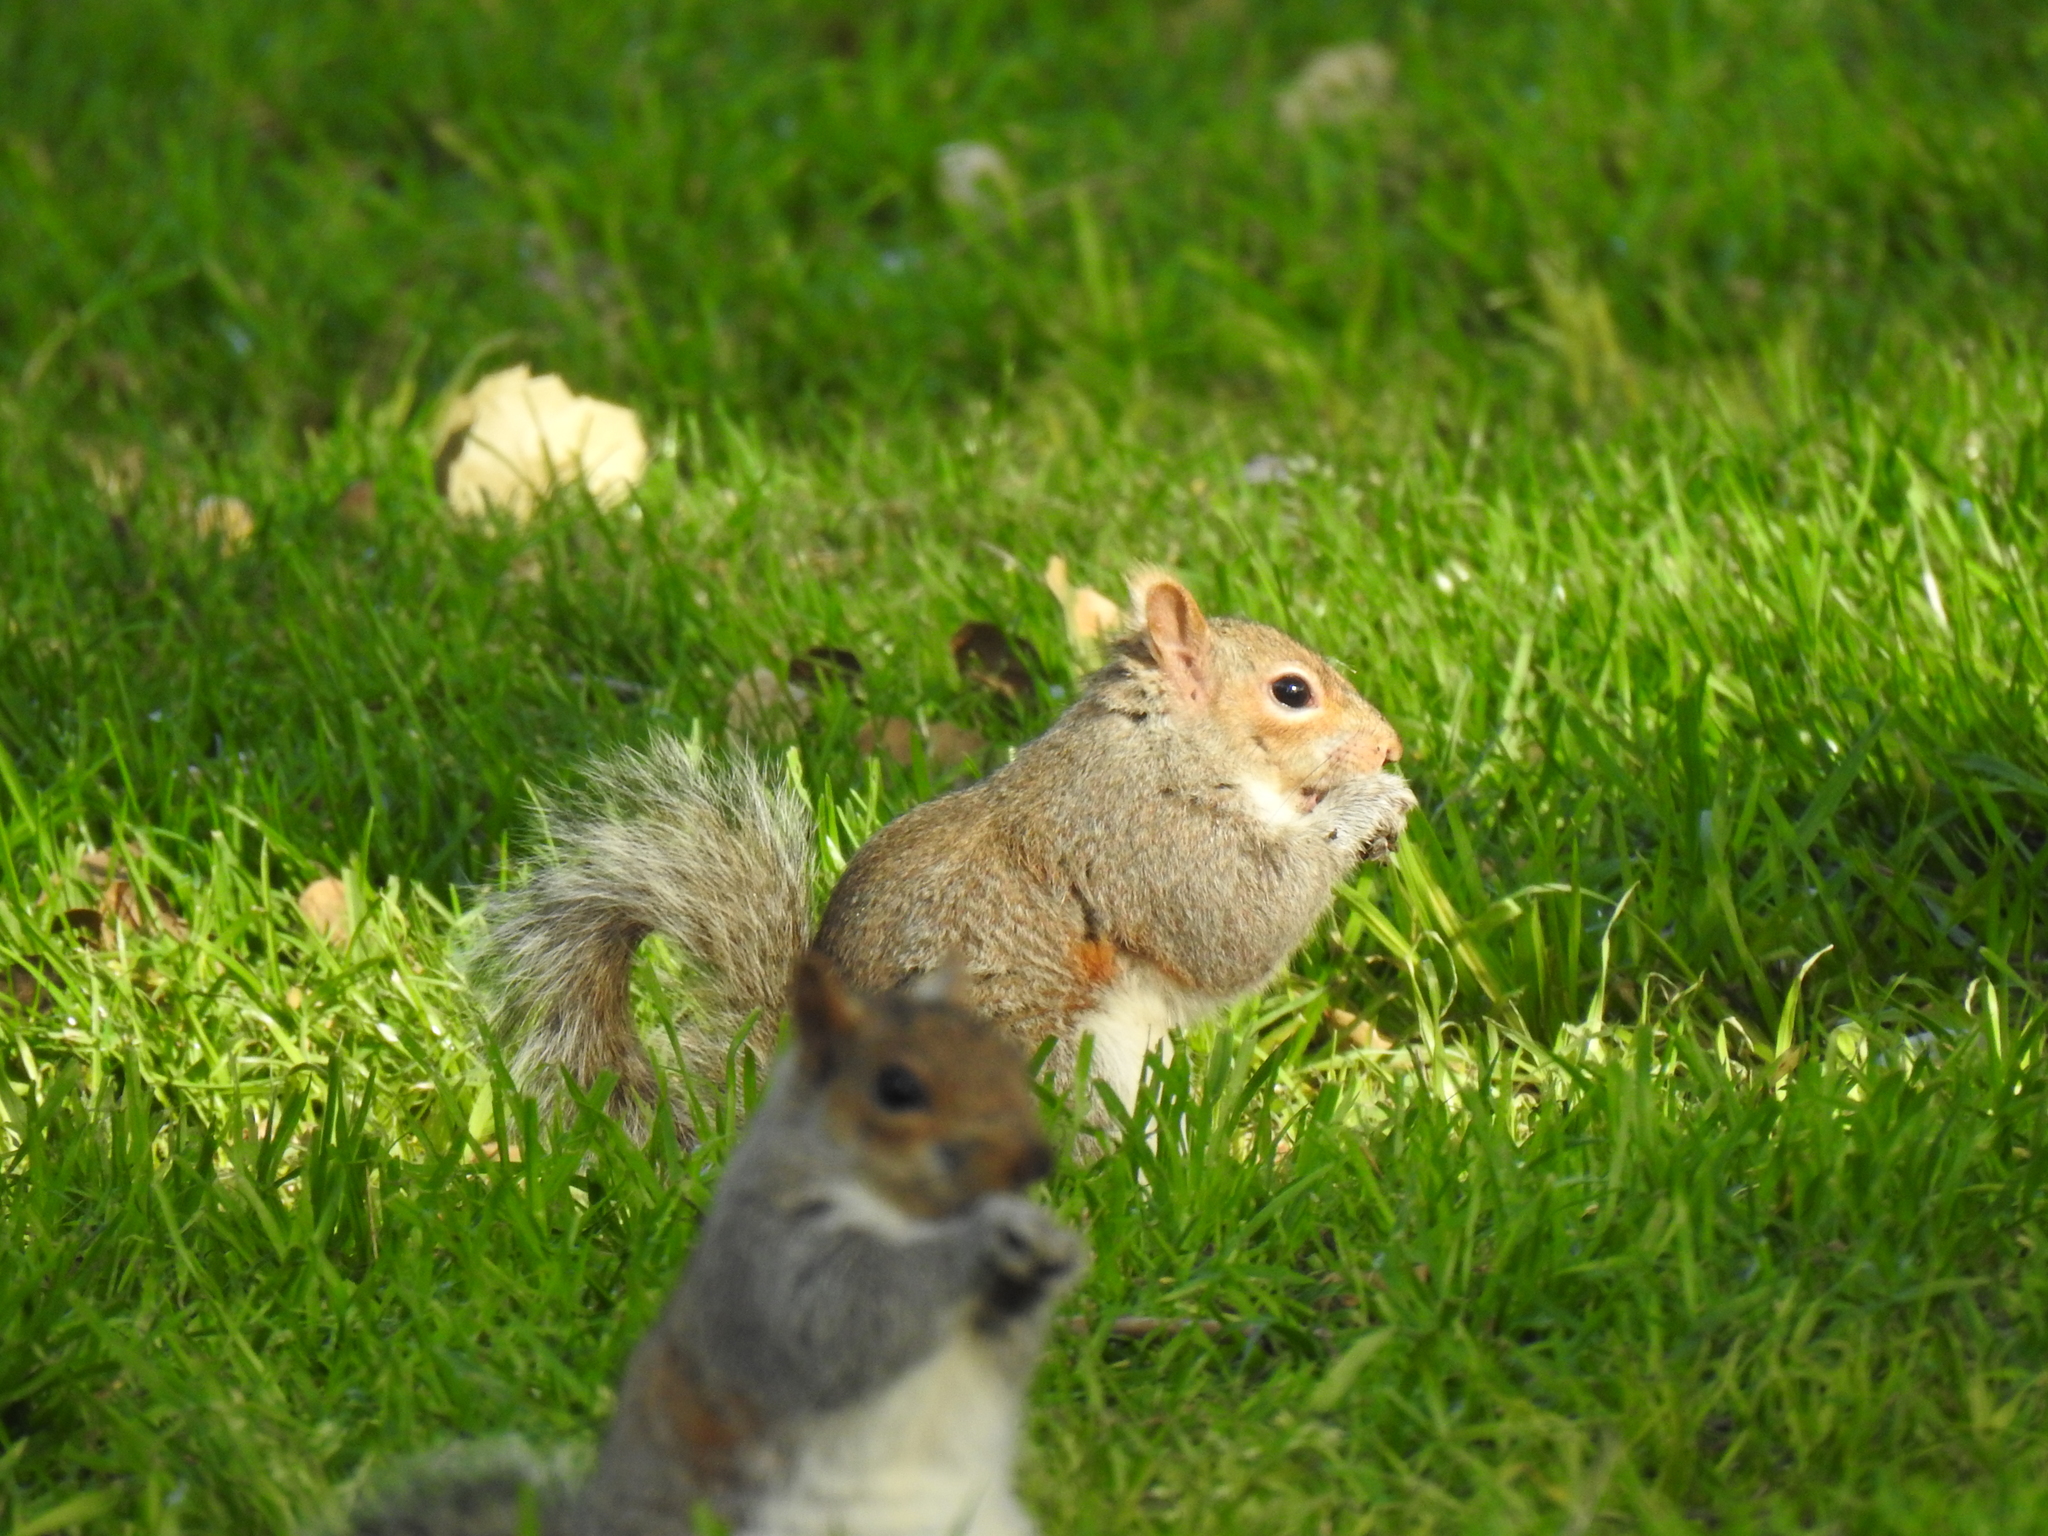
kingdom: Animalia
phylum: Chordata
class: Mammalia
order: Rodentia
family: Sciuridae
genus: Sciurus
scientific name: Sciurus carolinensis
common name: Eastern gray squirrel
